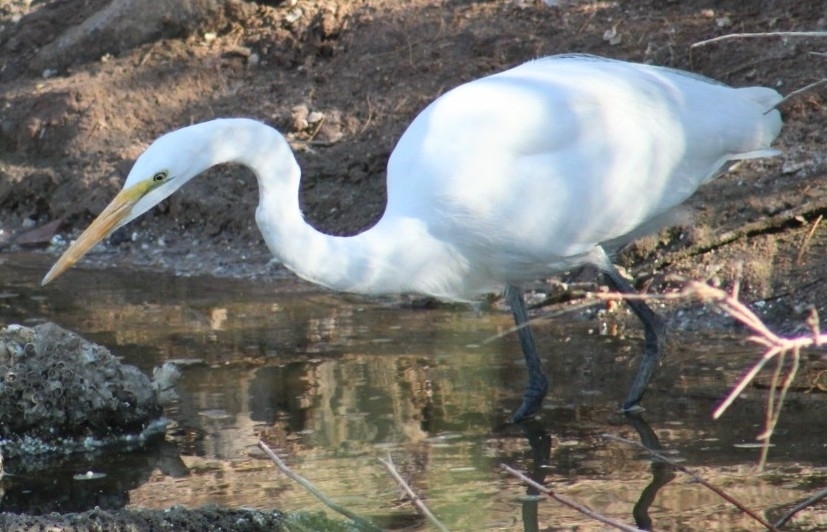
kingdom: Animalia
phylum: Chordata
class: Aves
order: Pelecaniformes
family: Ardeidae
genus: Ardea
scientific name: Ardea alba
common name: Great egret
